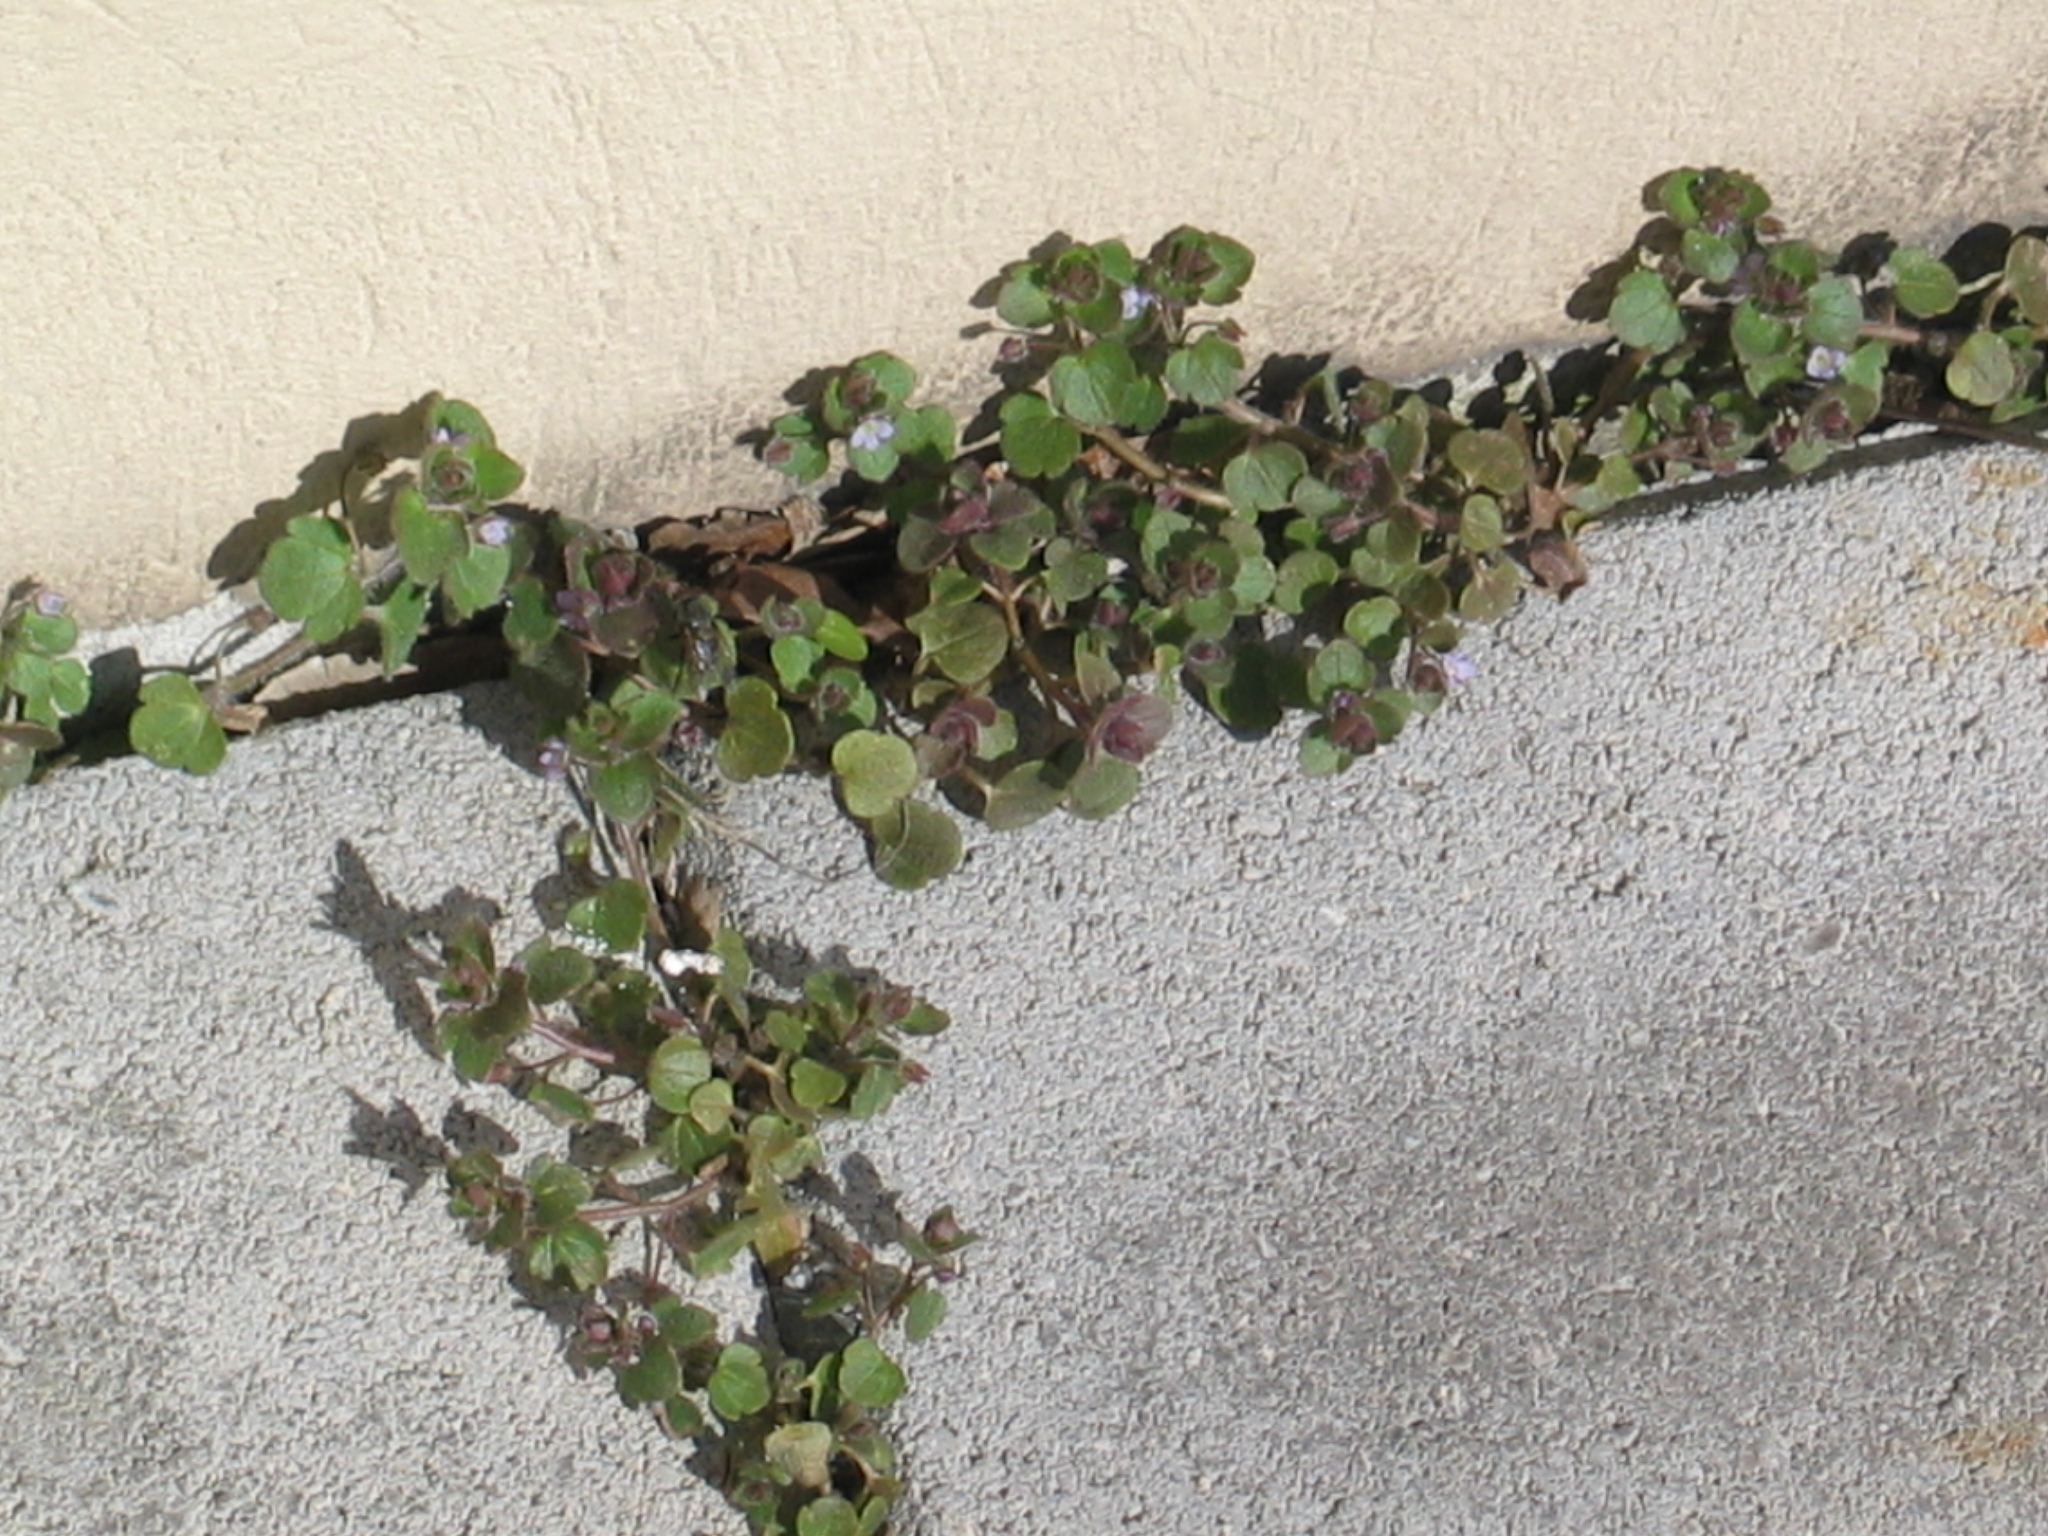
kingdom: Plantae
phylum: Tracheophyta
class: Magnoliopsida
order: Lamiales
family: Plantaginaceae
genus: Veronica
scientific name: Veronica sublobata
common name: False ivy-leaved speedwell
